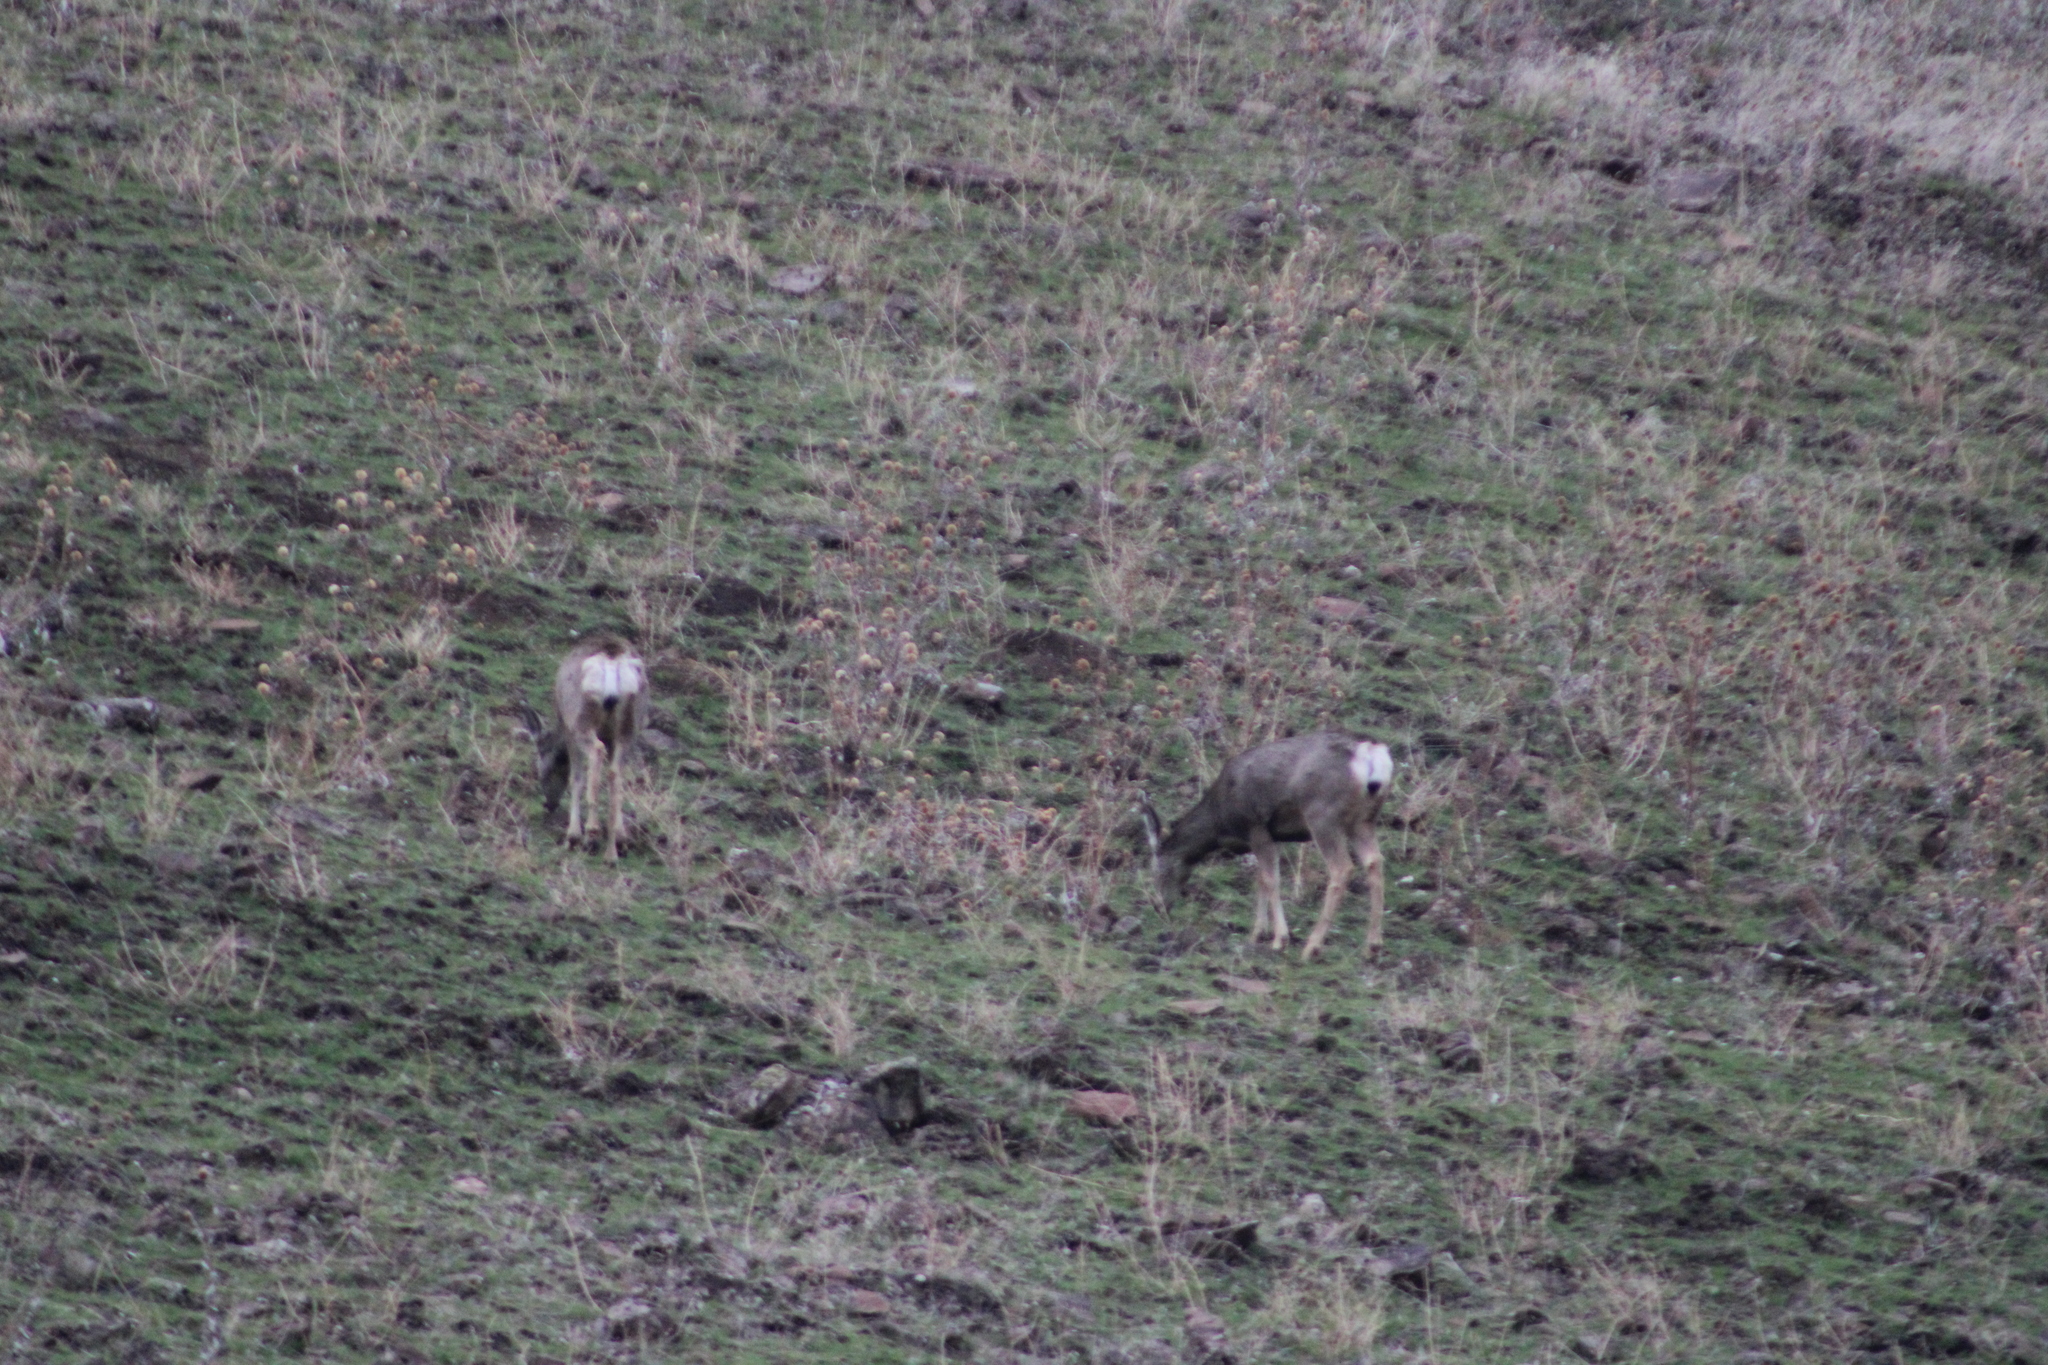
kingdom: Animalia
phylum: Chordata
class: Mammalia
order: Artiodactyla
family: Cervidae
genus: Odocoileus
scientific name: Odocoileus hemionus
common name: Mule deer
